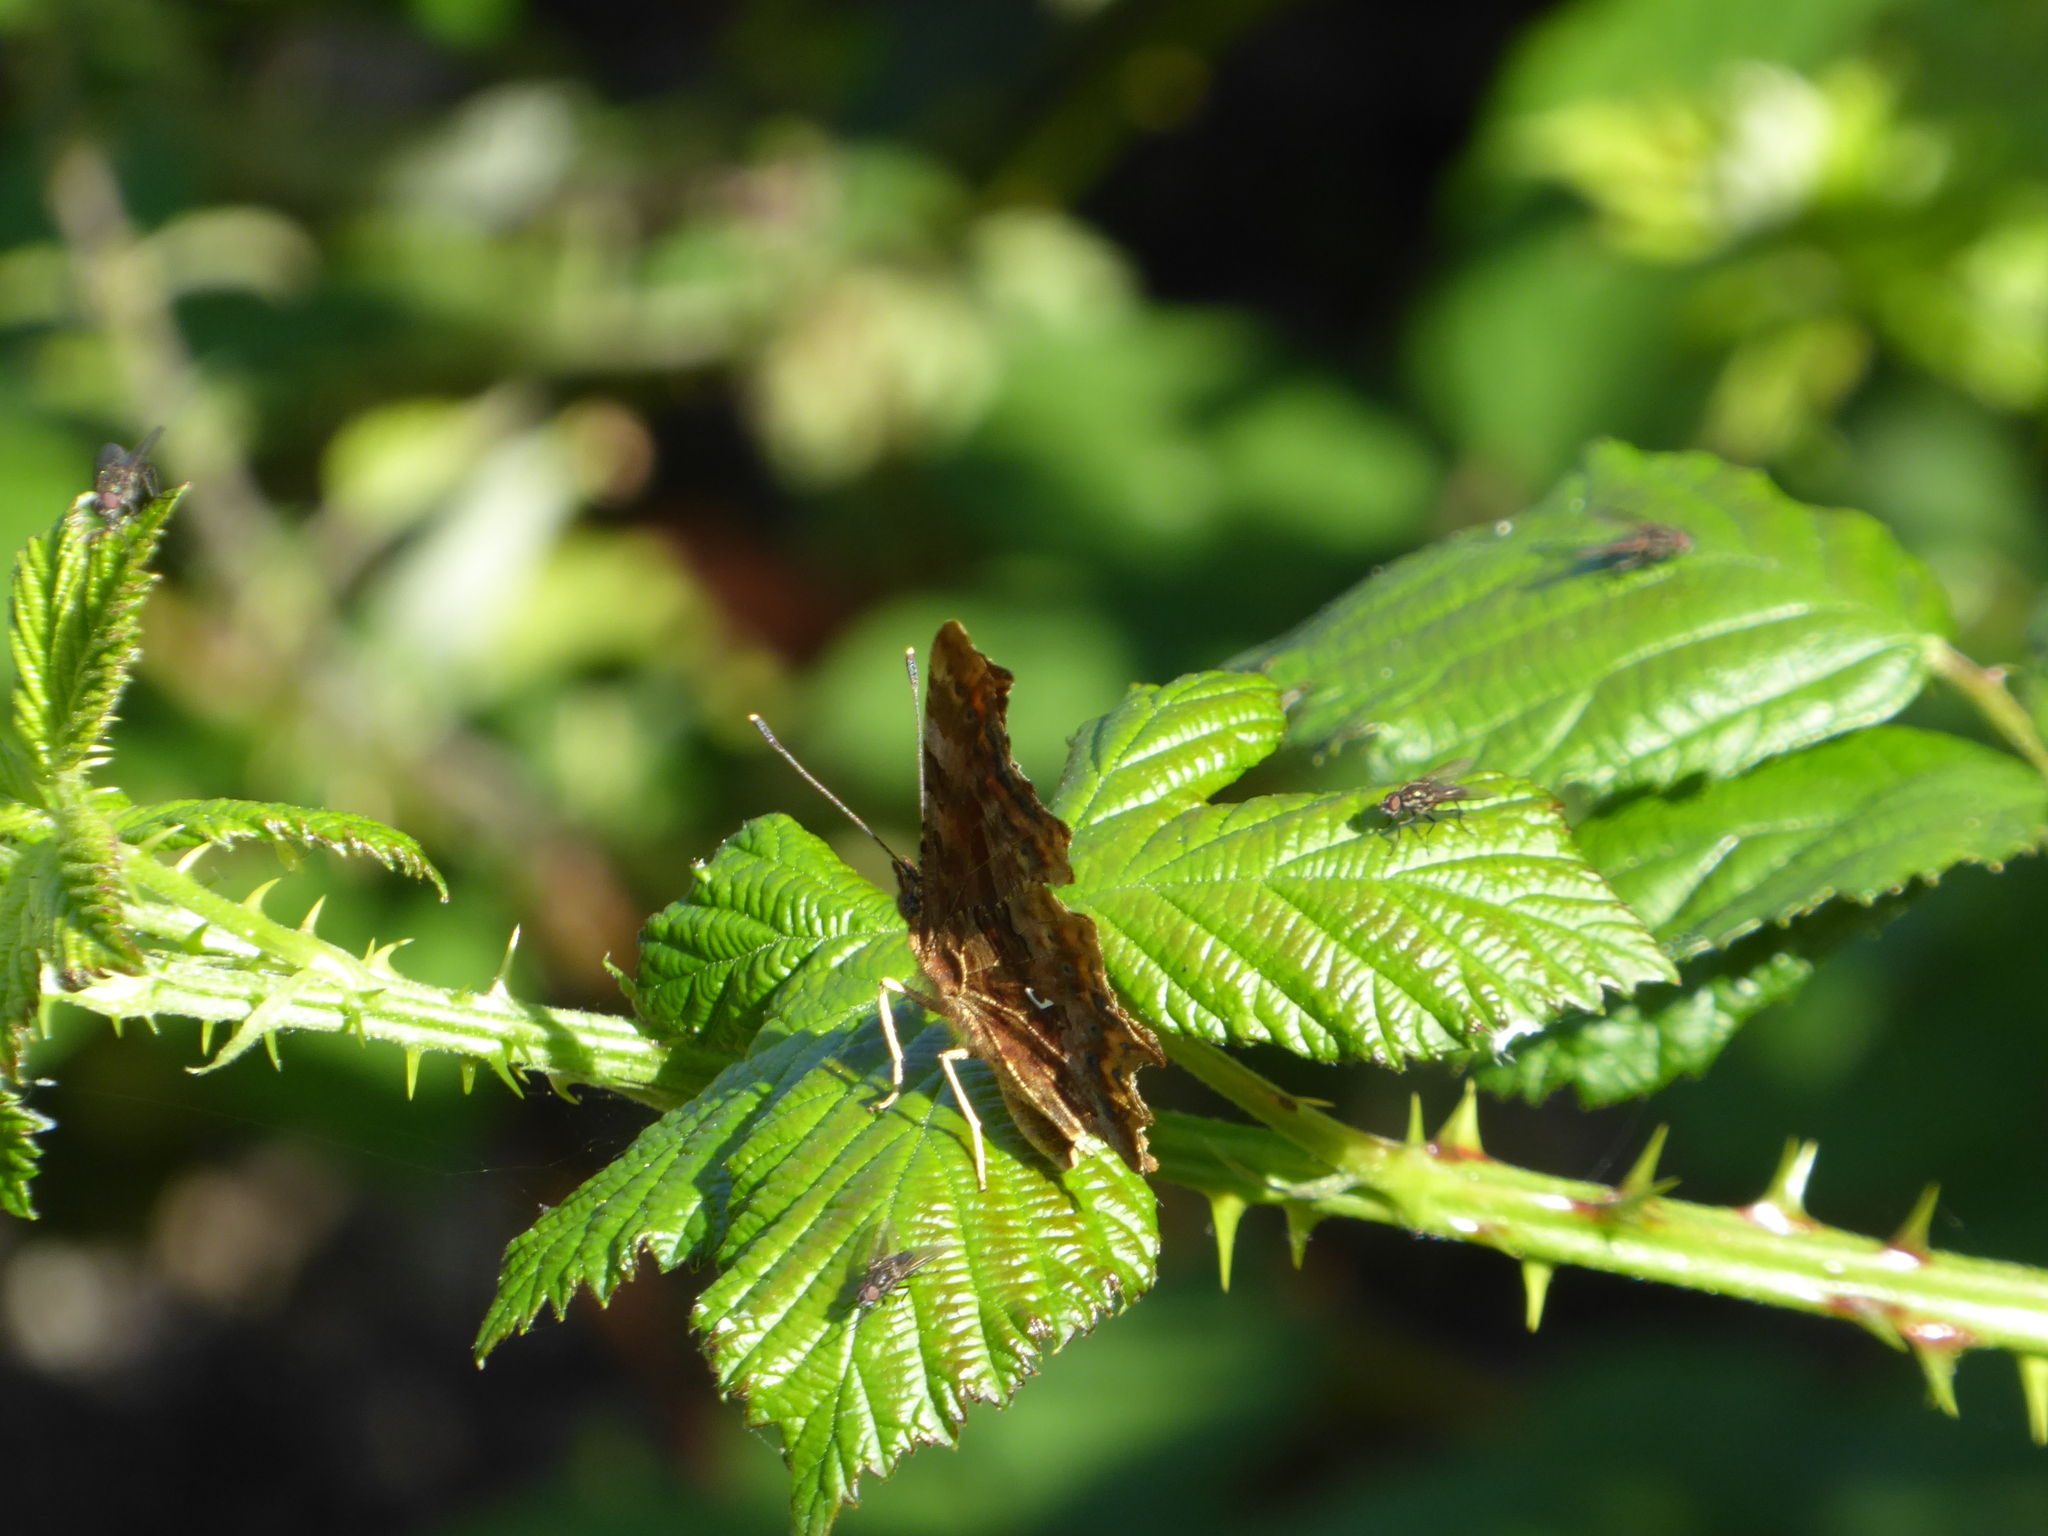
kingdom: Animalia
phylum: Arthropoda
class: Insecta
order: Lepidoptera
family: Nymphalidae
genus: Polygonia
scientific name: Polygonia c-album
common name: Comma
